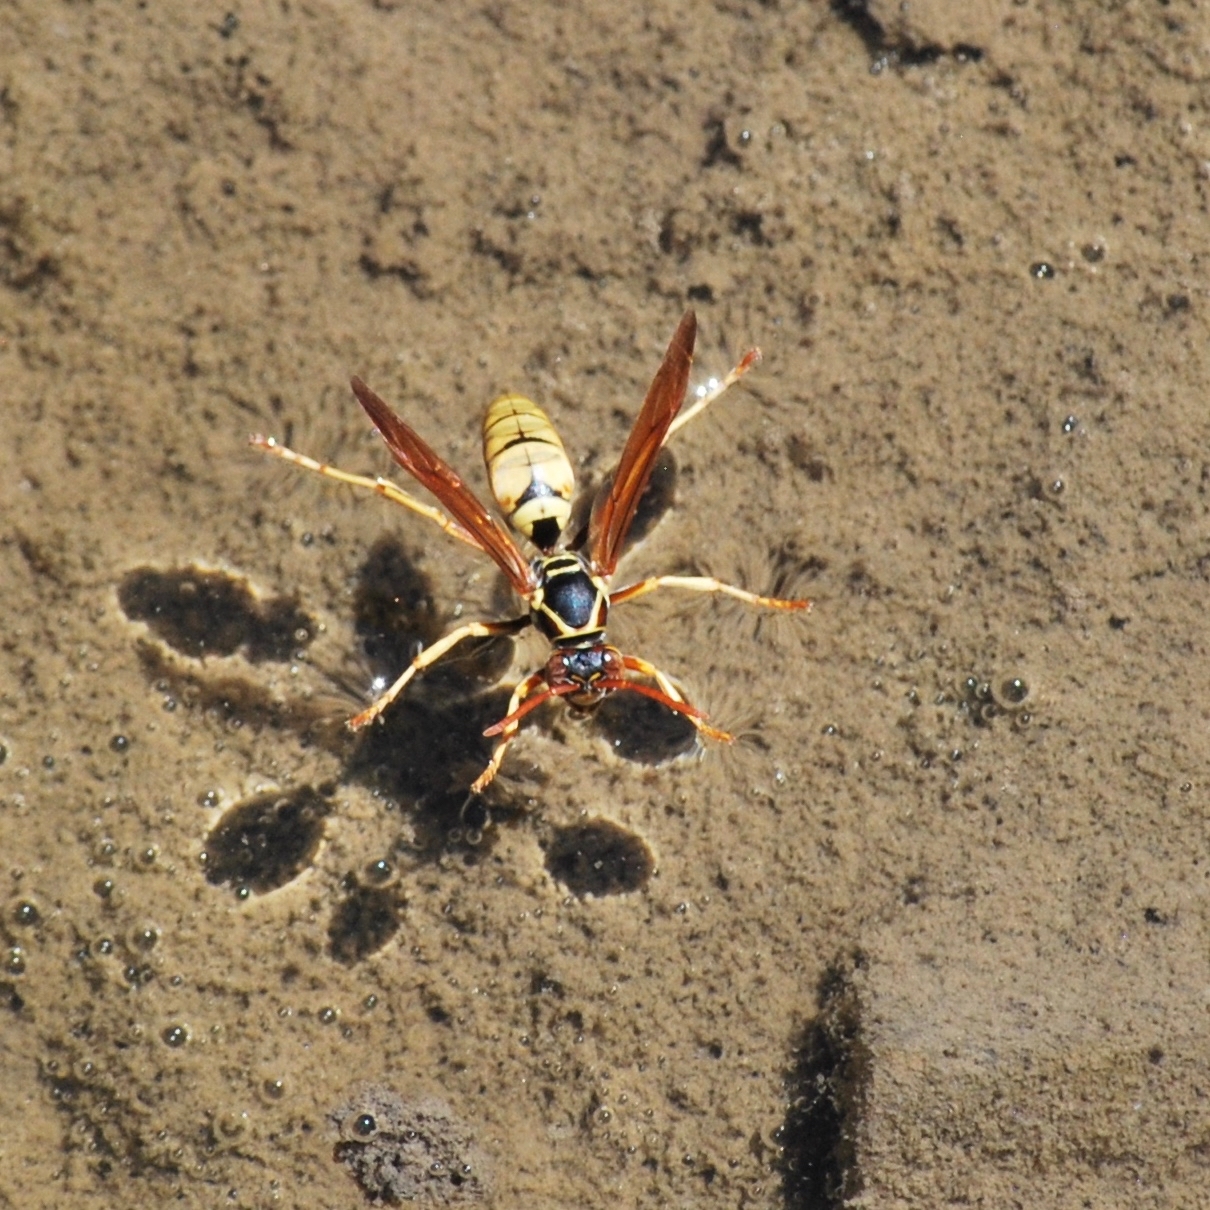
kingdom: Animalia
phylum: Arthropoda
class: Insecta
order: Hymenoptera
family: Eumenidae
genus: Polistes
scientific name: Polistes aurifer
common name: Paper wasp
